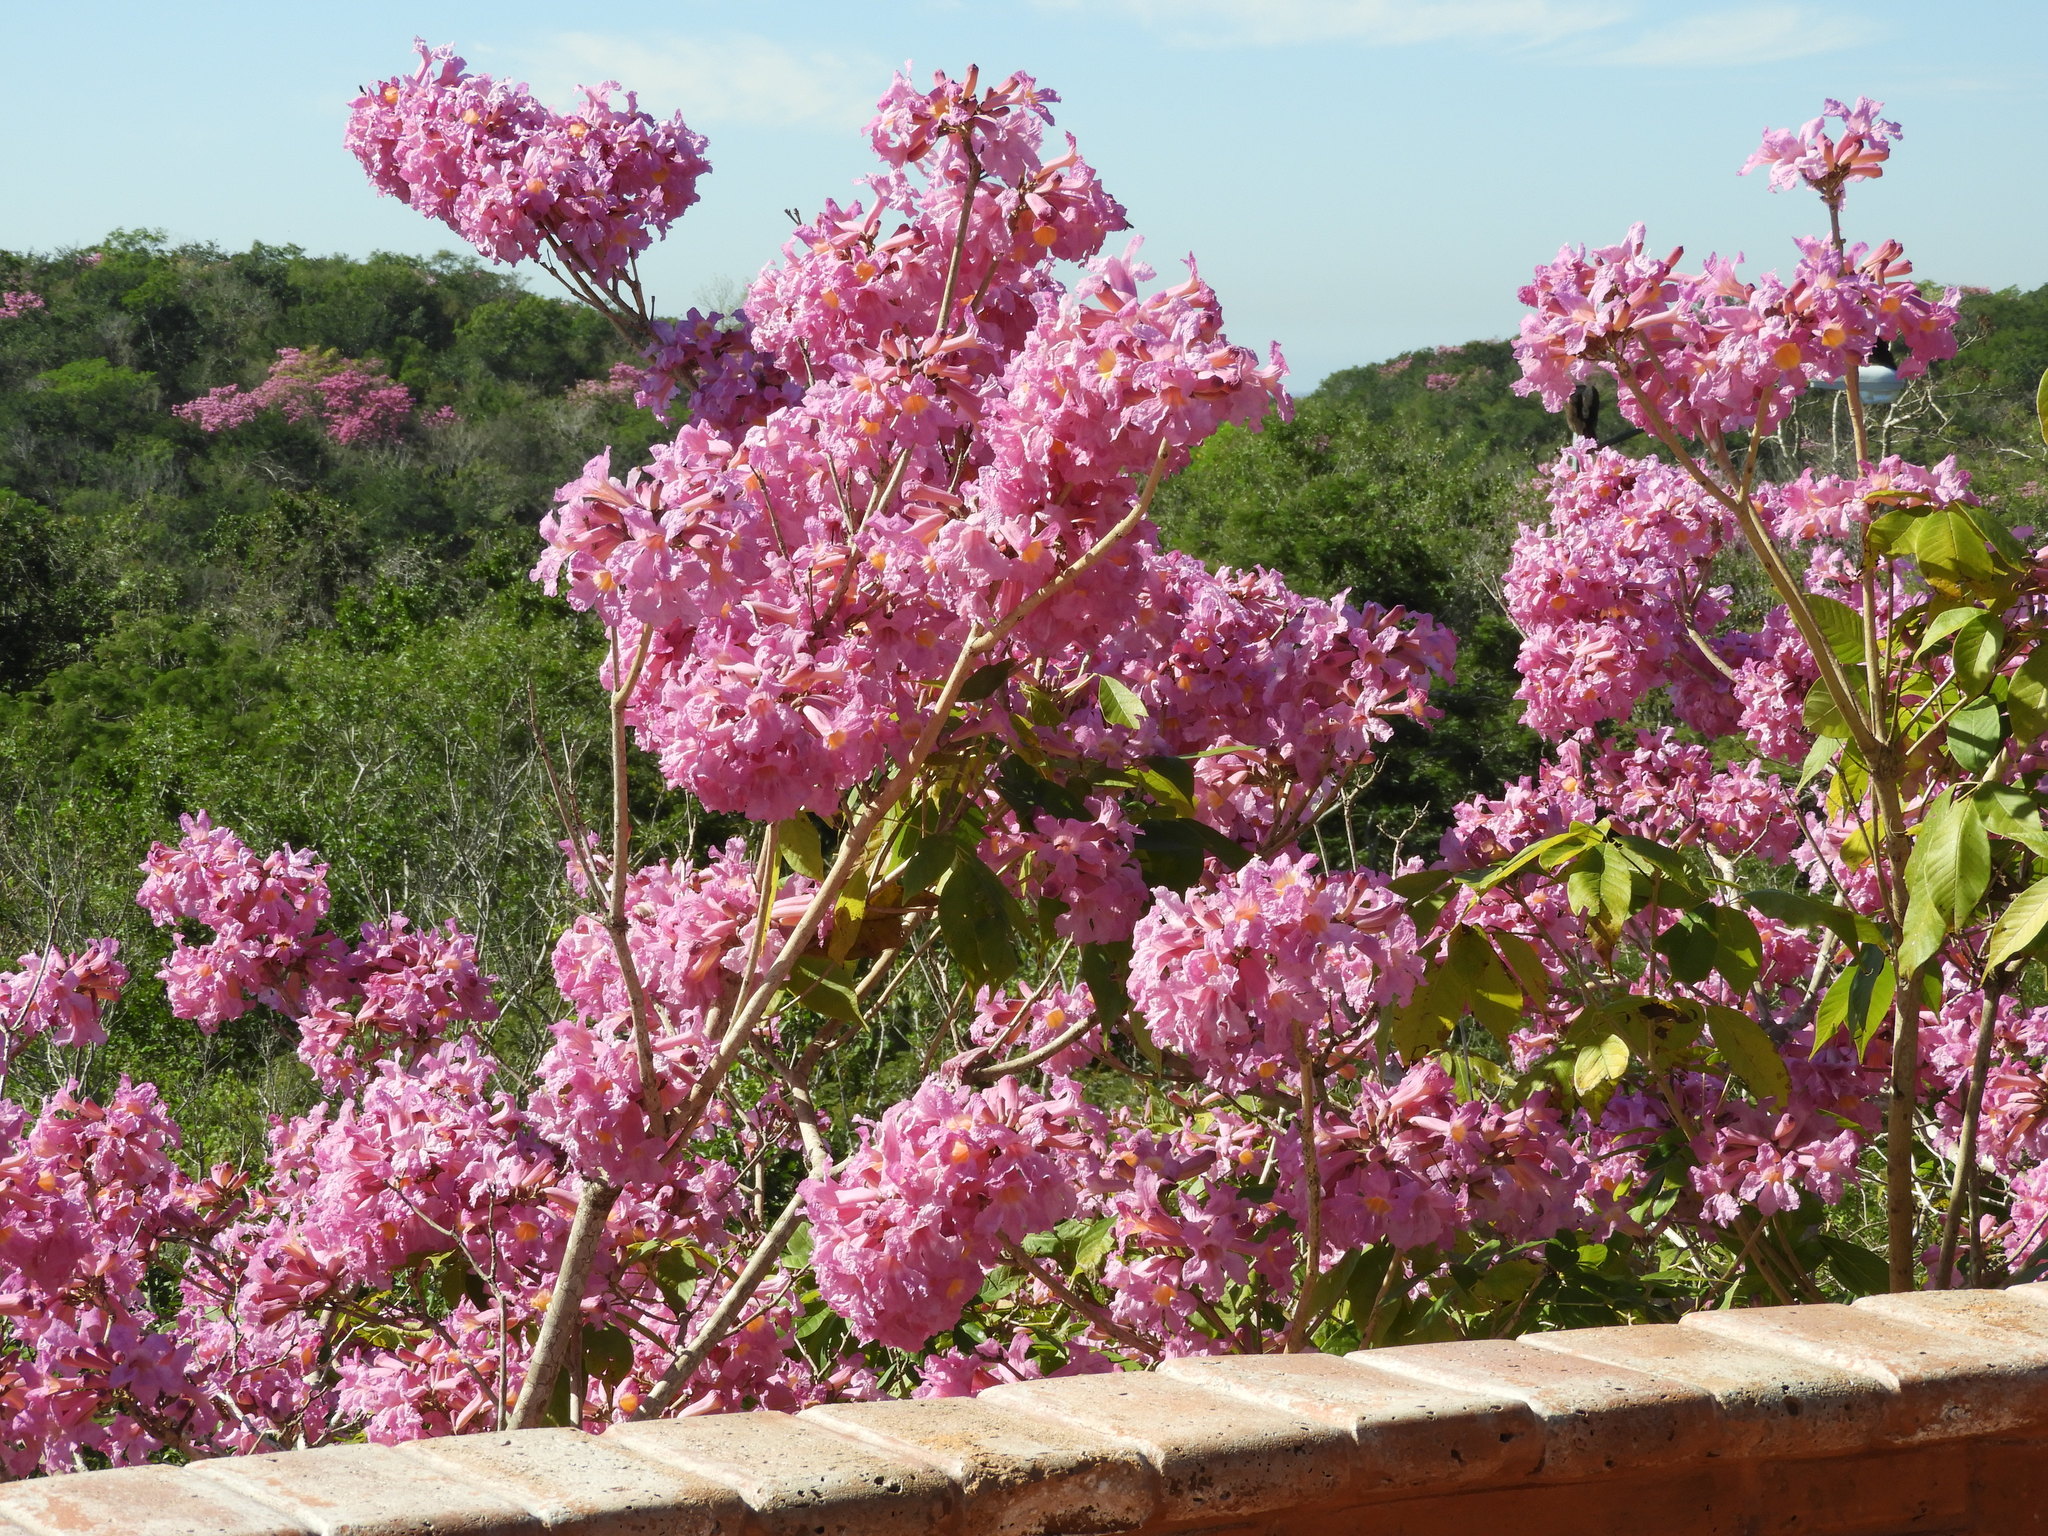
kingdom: Plantae
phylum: Tracheophyta
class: Magnoliopsida
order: Lamiales
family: Bignoniaceae
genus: Handroanthus
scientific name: Handroanthus impetiginosum
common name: Pink trumpet tree
